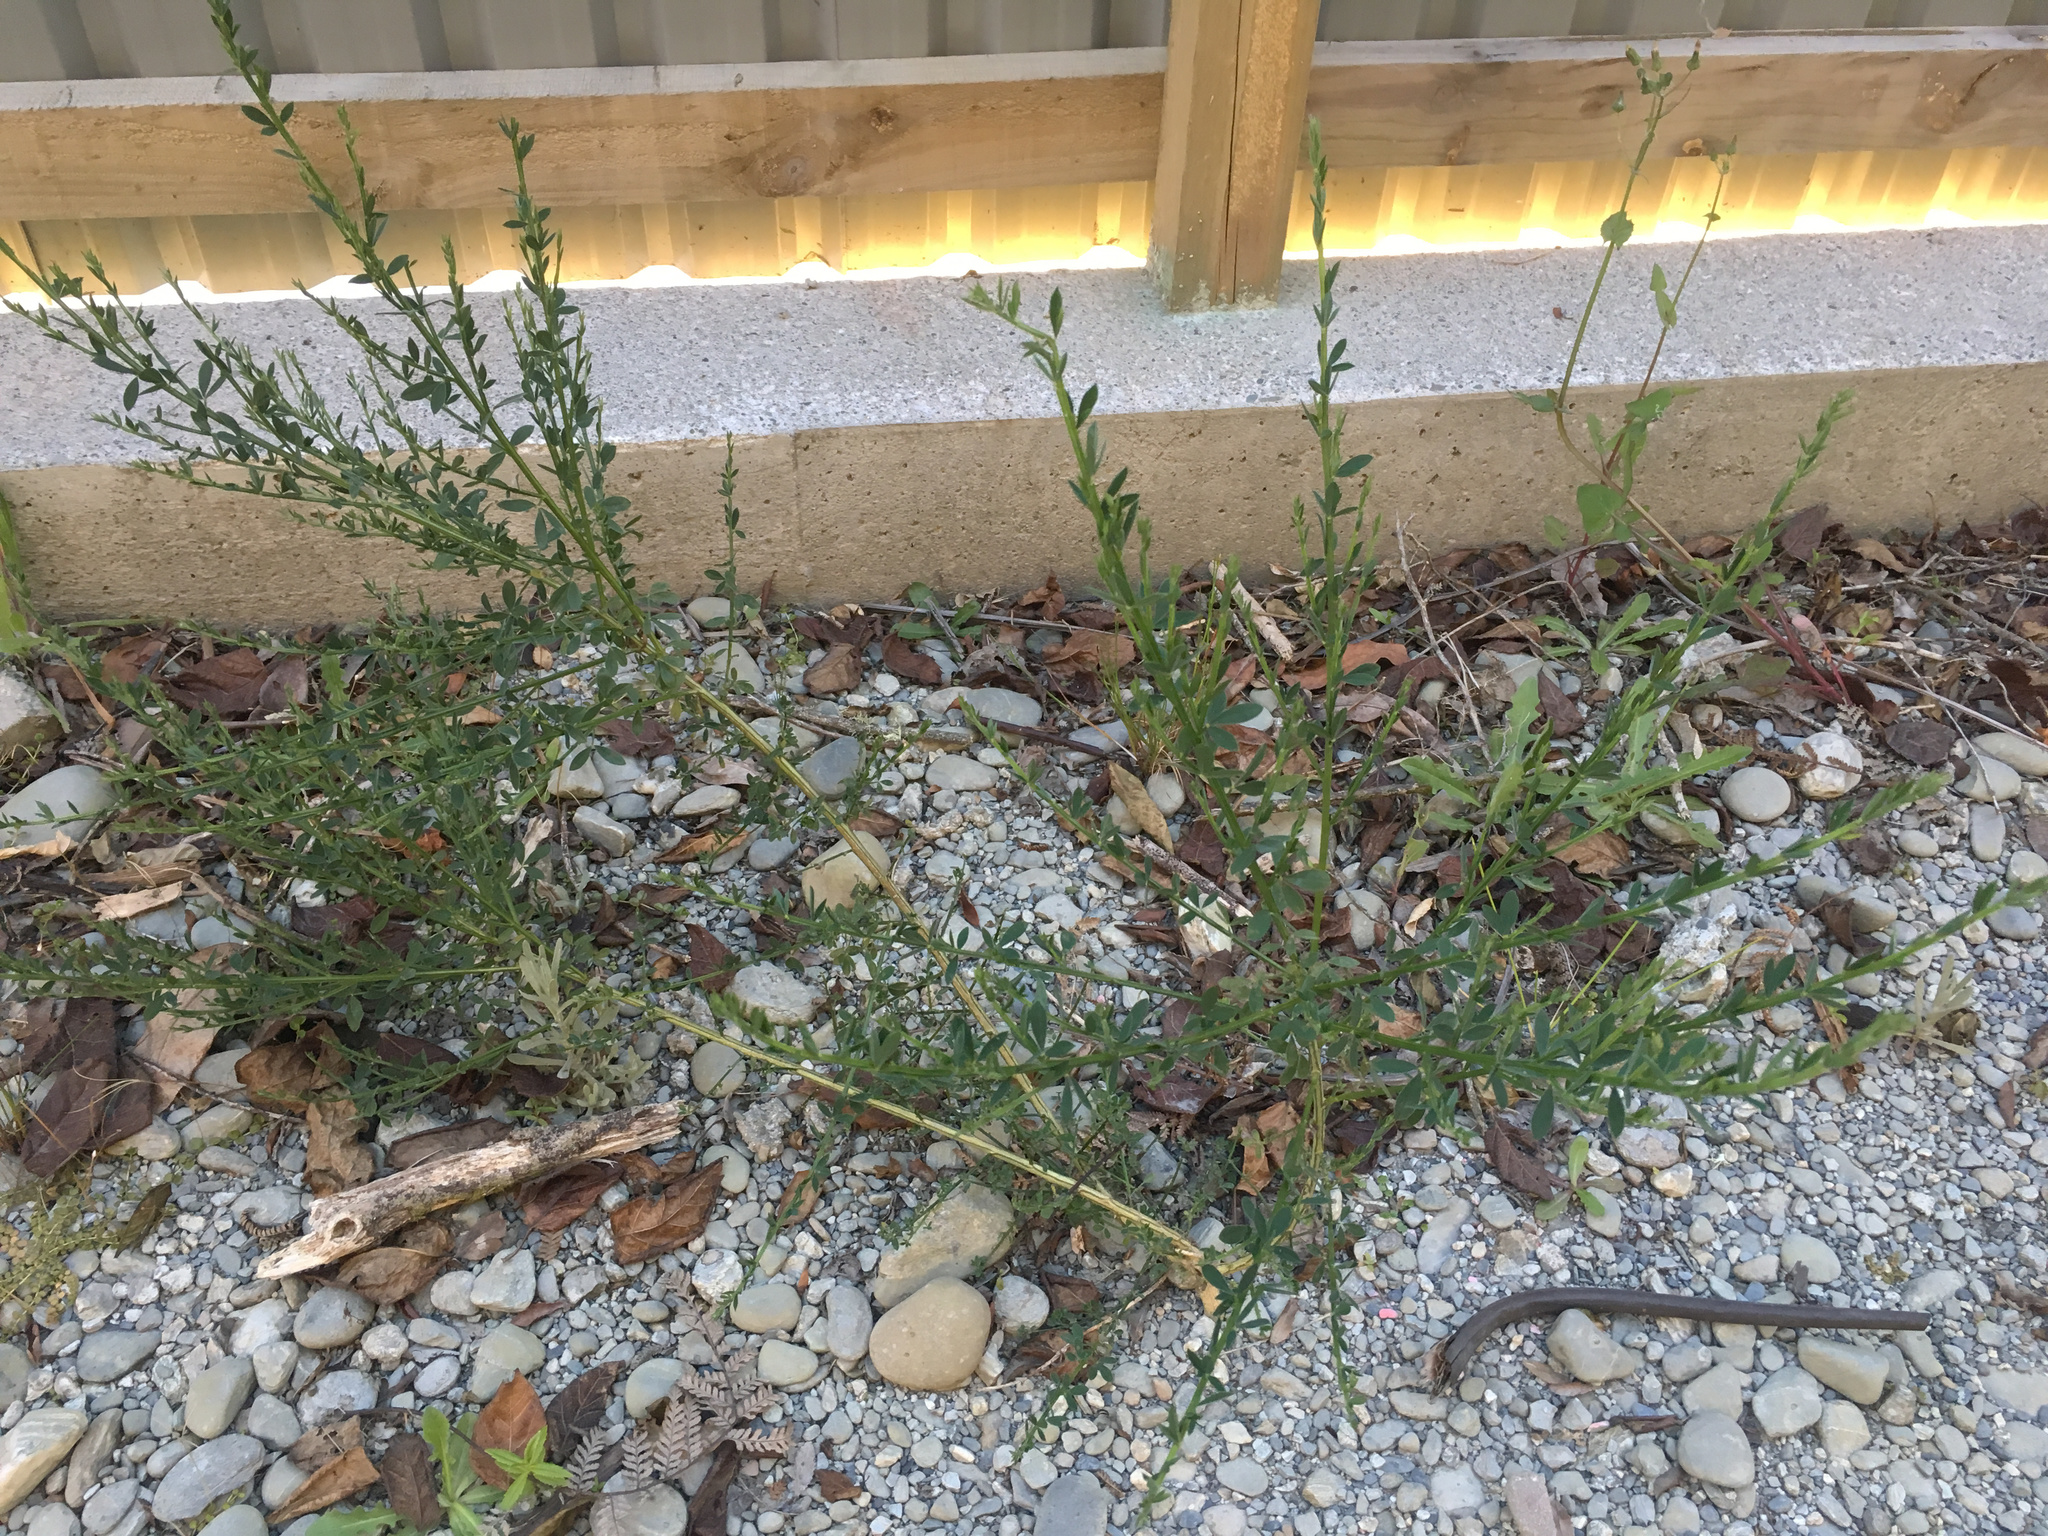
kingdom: Plantae
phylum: Tracheophyta
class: Magnoliopsida
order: Fabales
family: Fabaceae
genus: Cytisus
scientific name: Cytisus scoparius
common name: Scotch broom
